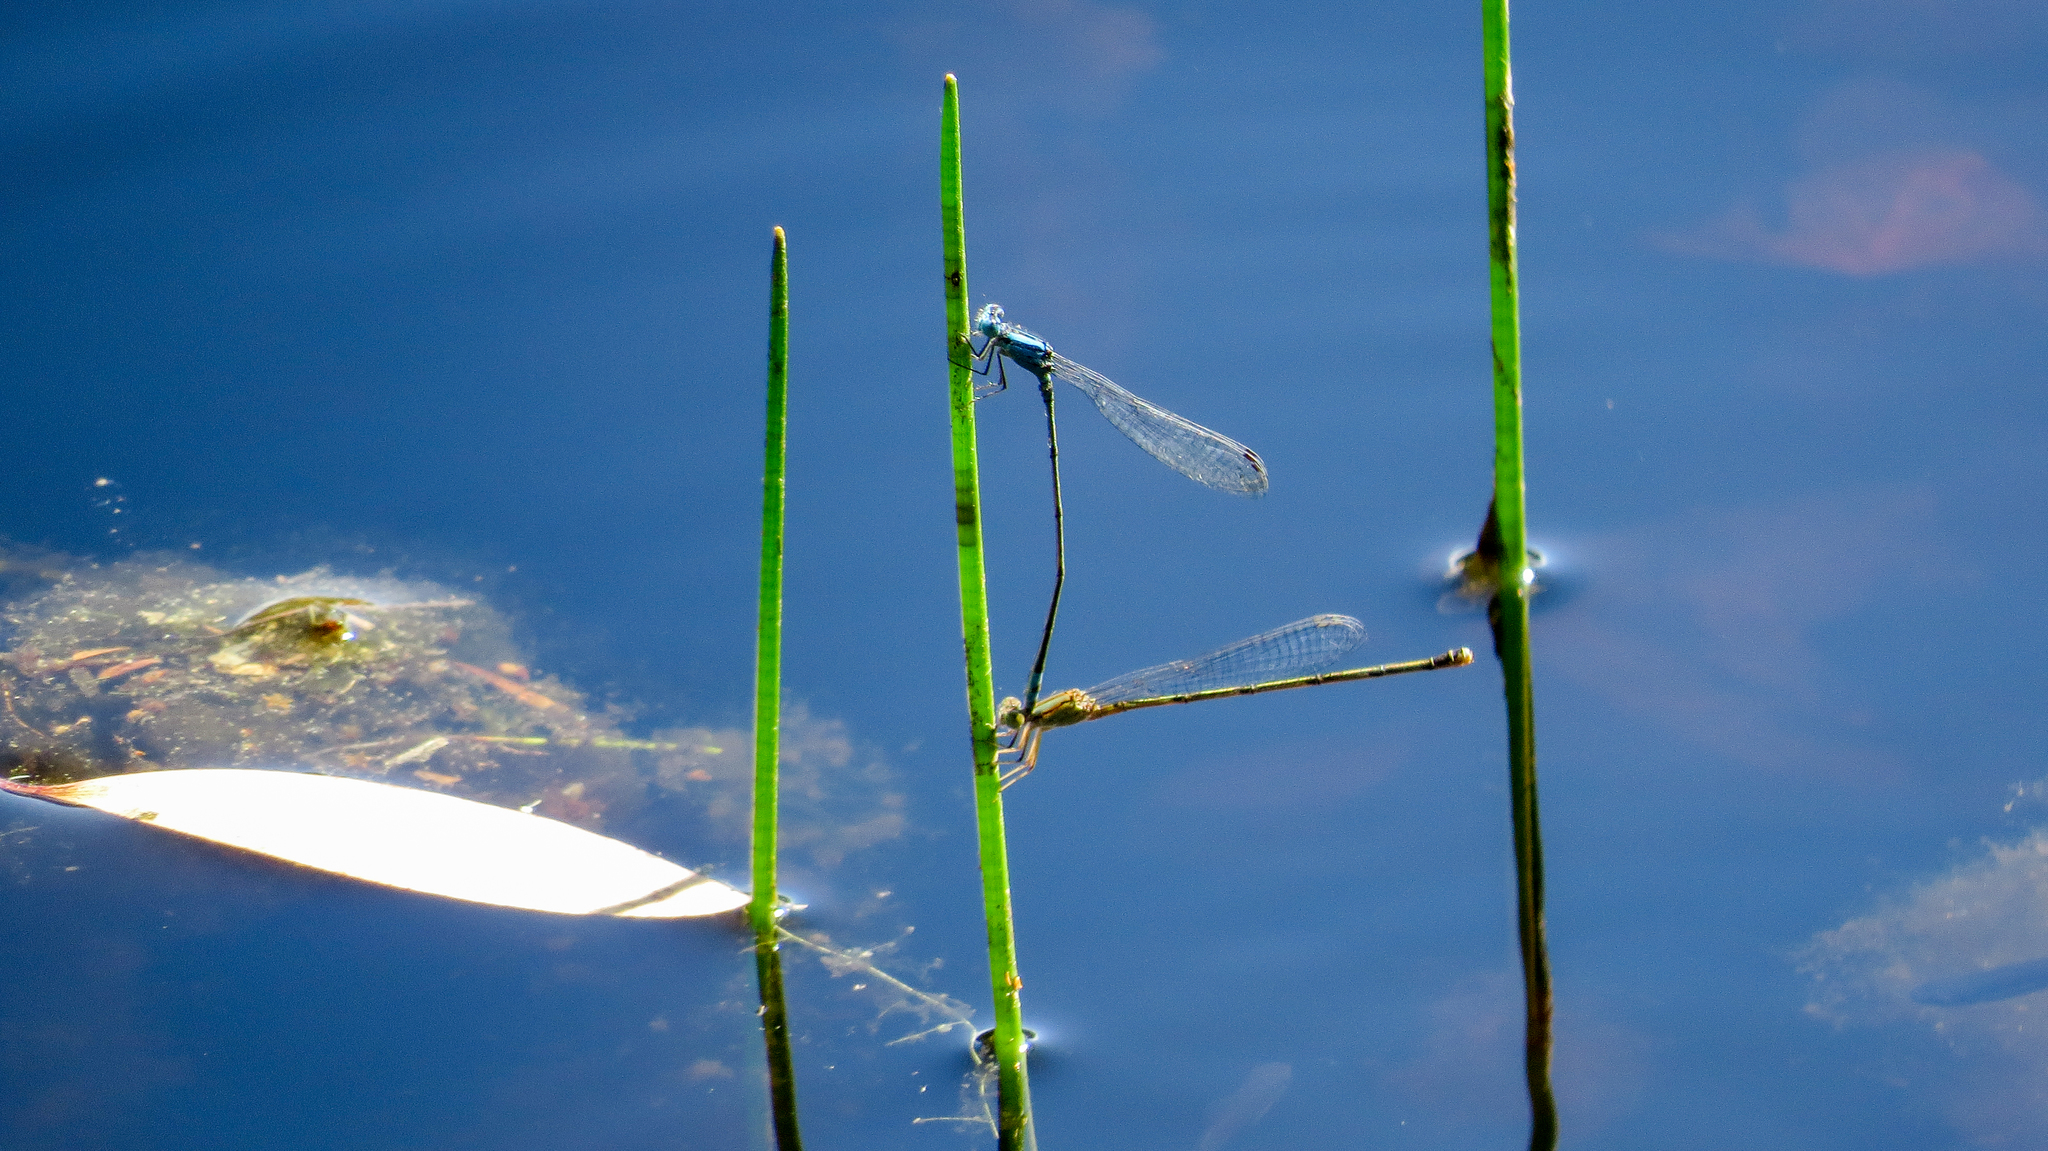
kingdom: Animalia
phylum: Arthropoda
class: Insecta
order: Odonata
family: Coenagrionidae
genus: Pseudagrion
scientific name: Pseudagrion microcephalum
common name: Blue riverdamsel
